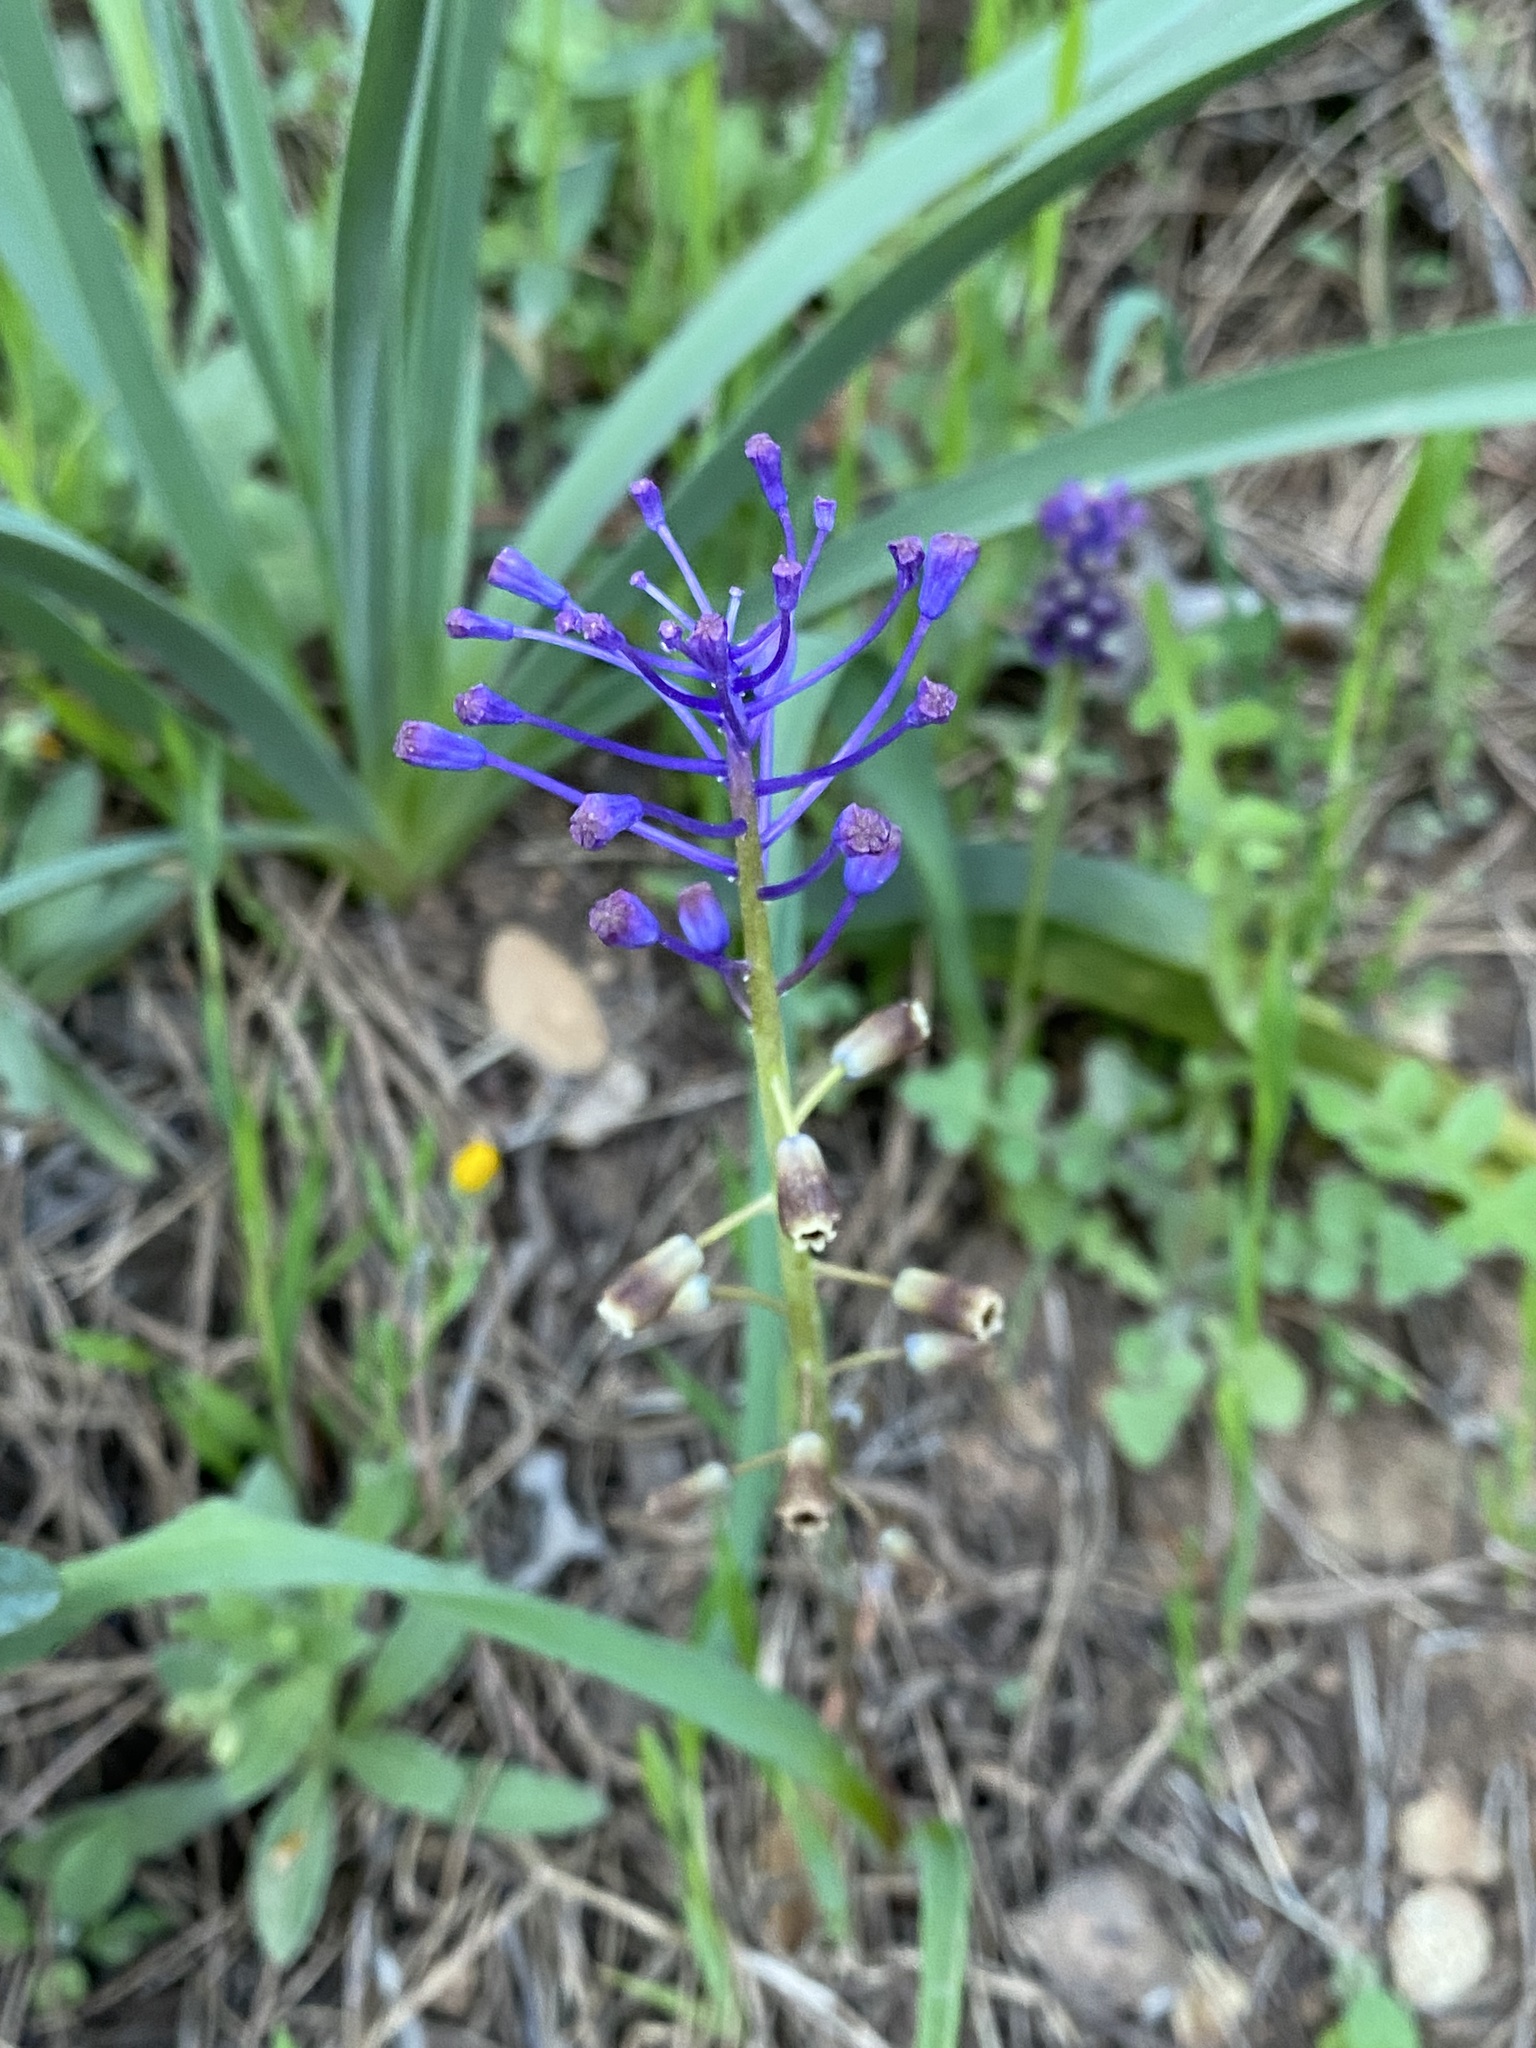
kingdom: Plantae
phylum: Tracheophyta
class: Liliopsida
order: Asparagales
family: Asparagaceae
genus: Muscari
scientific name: Muscari comosum
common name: Tassel hyacinth
